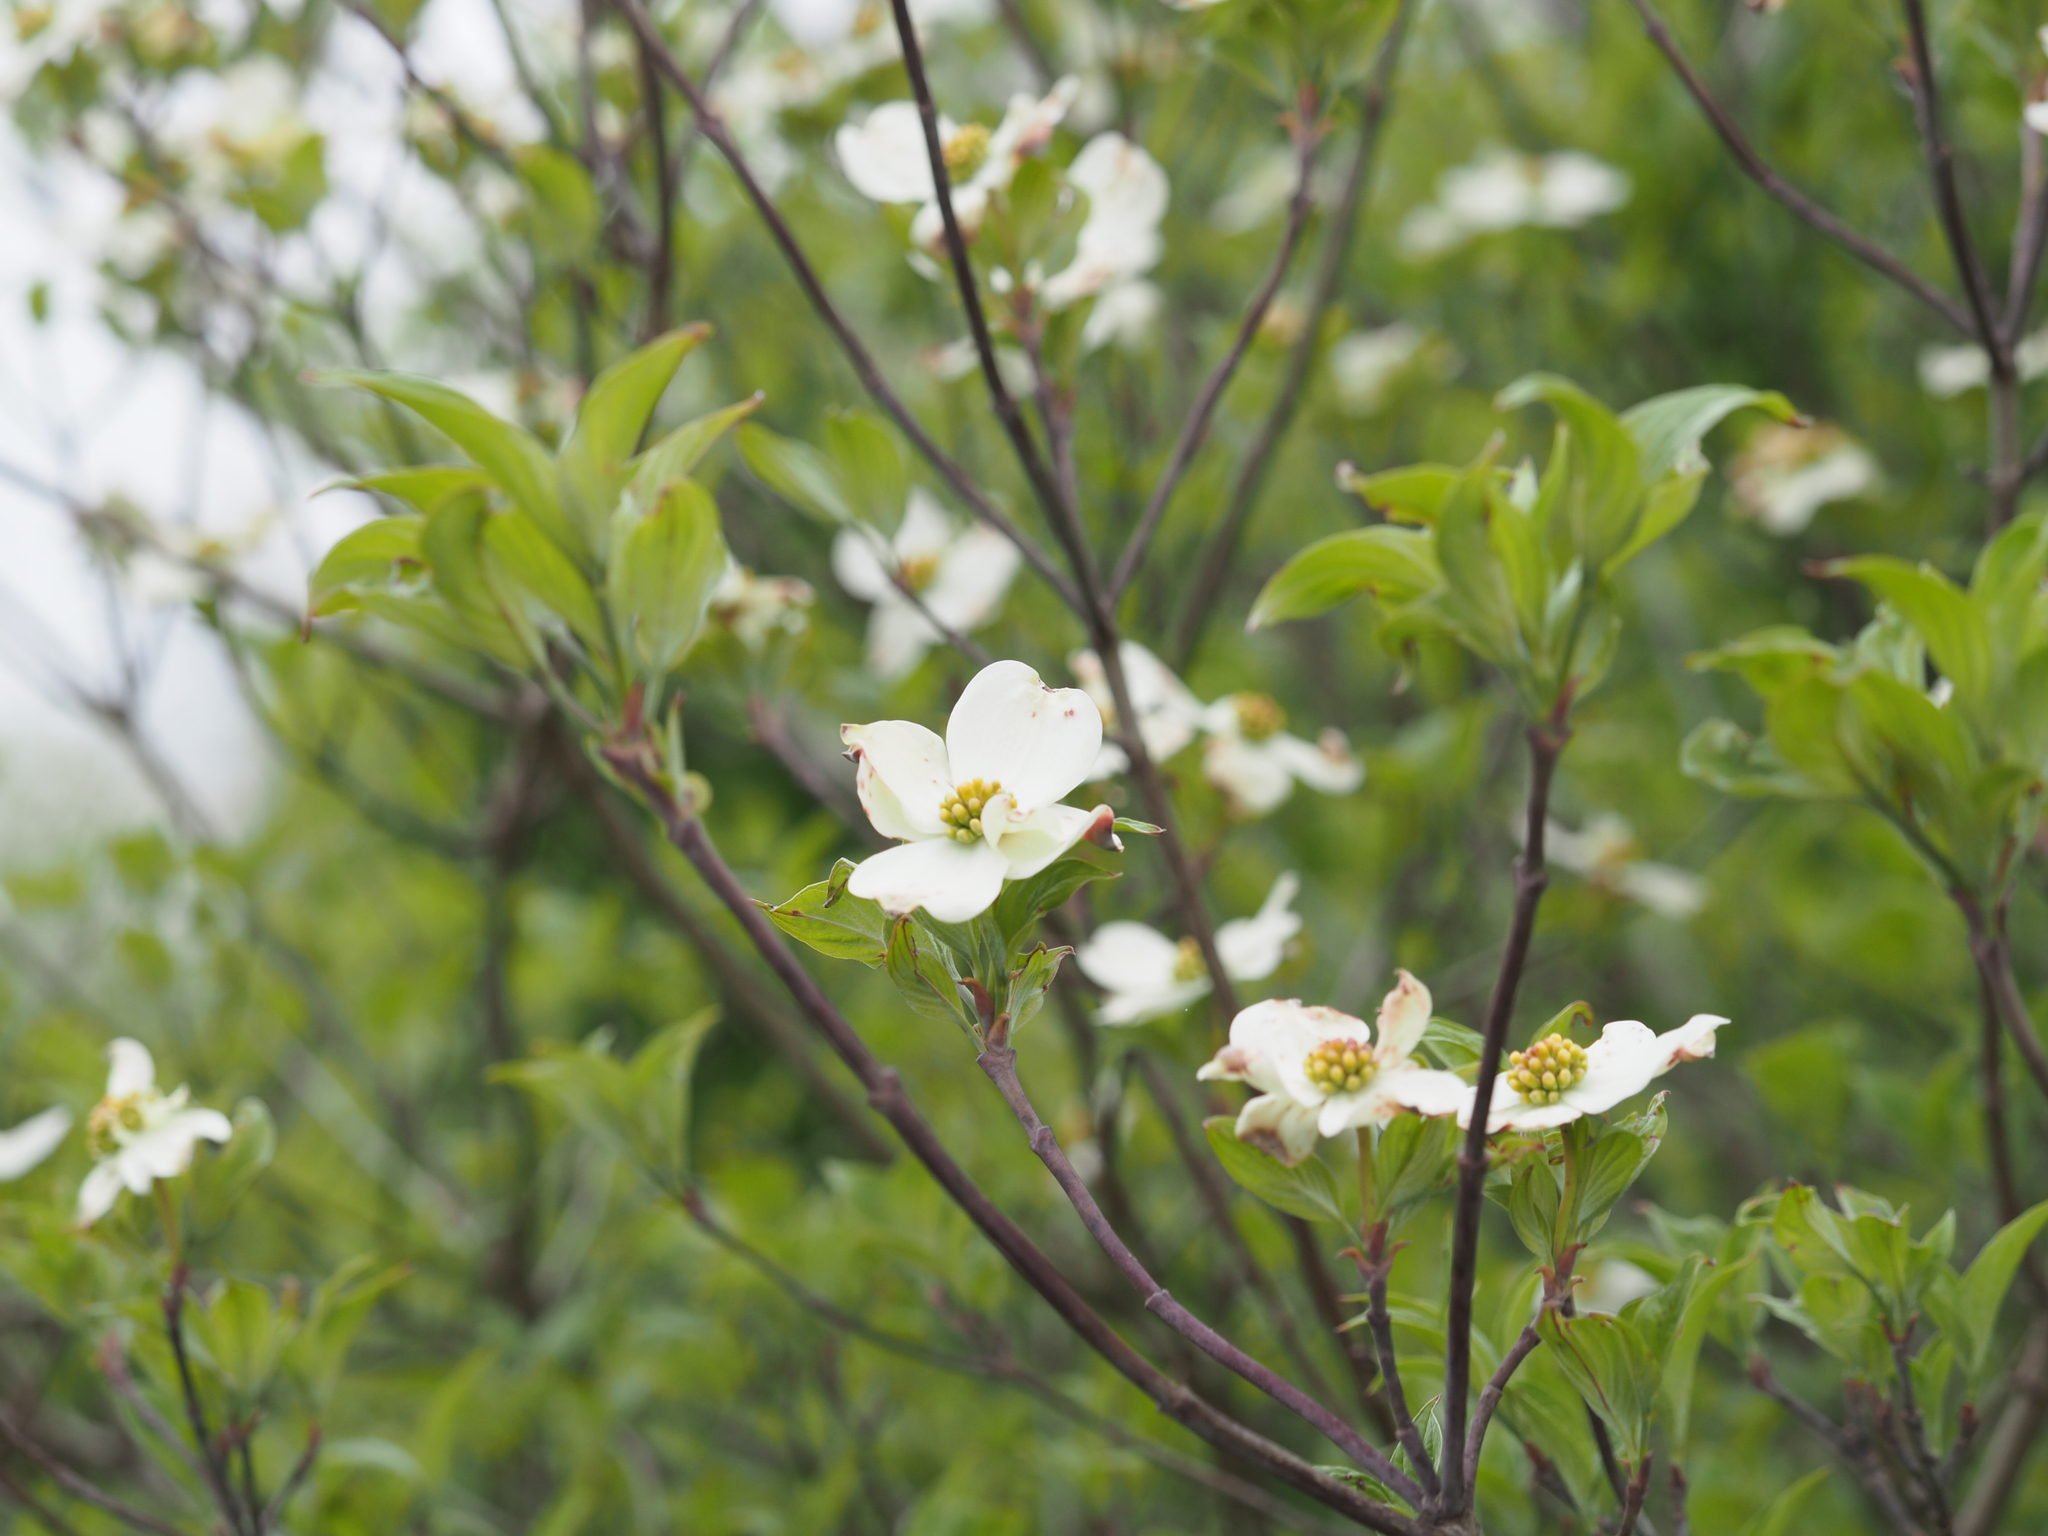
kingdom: Plantae
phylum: Tracheophyta
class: Magnoliopsida
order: Cornales
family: Cornaceae
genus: Cornus
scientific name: Cornus florida
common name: Flowering dogwood
